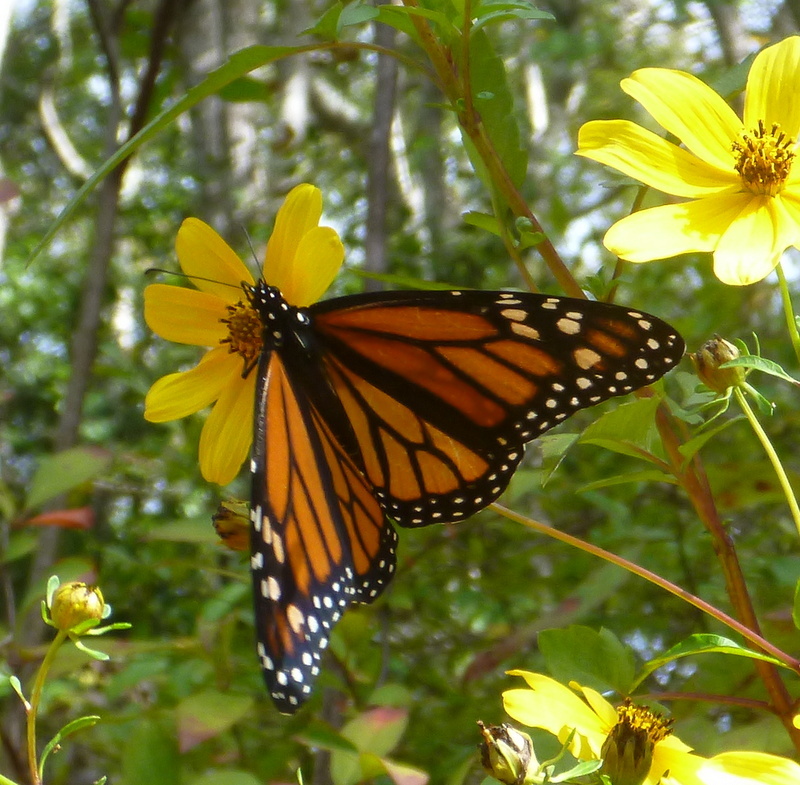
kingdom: Animalia
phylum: Arthropoda
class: Insecta
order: Lepidoptera
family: Nymphalidae
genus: Danaus
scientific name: Danaus plexippus
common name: Monarch
